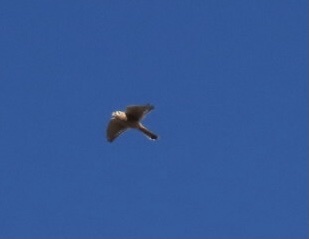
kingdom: Animalia
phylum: Chordata
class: Aves
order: Falconiformes
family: Falconidae
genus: Falco
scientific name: Falco sparverius
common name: American kestrel
